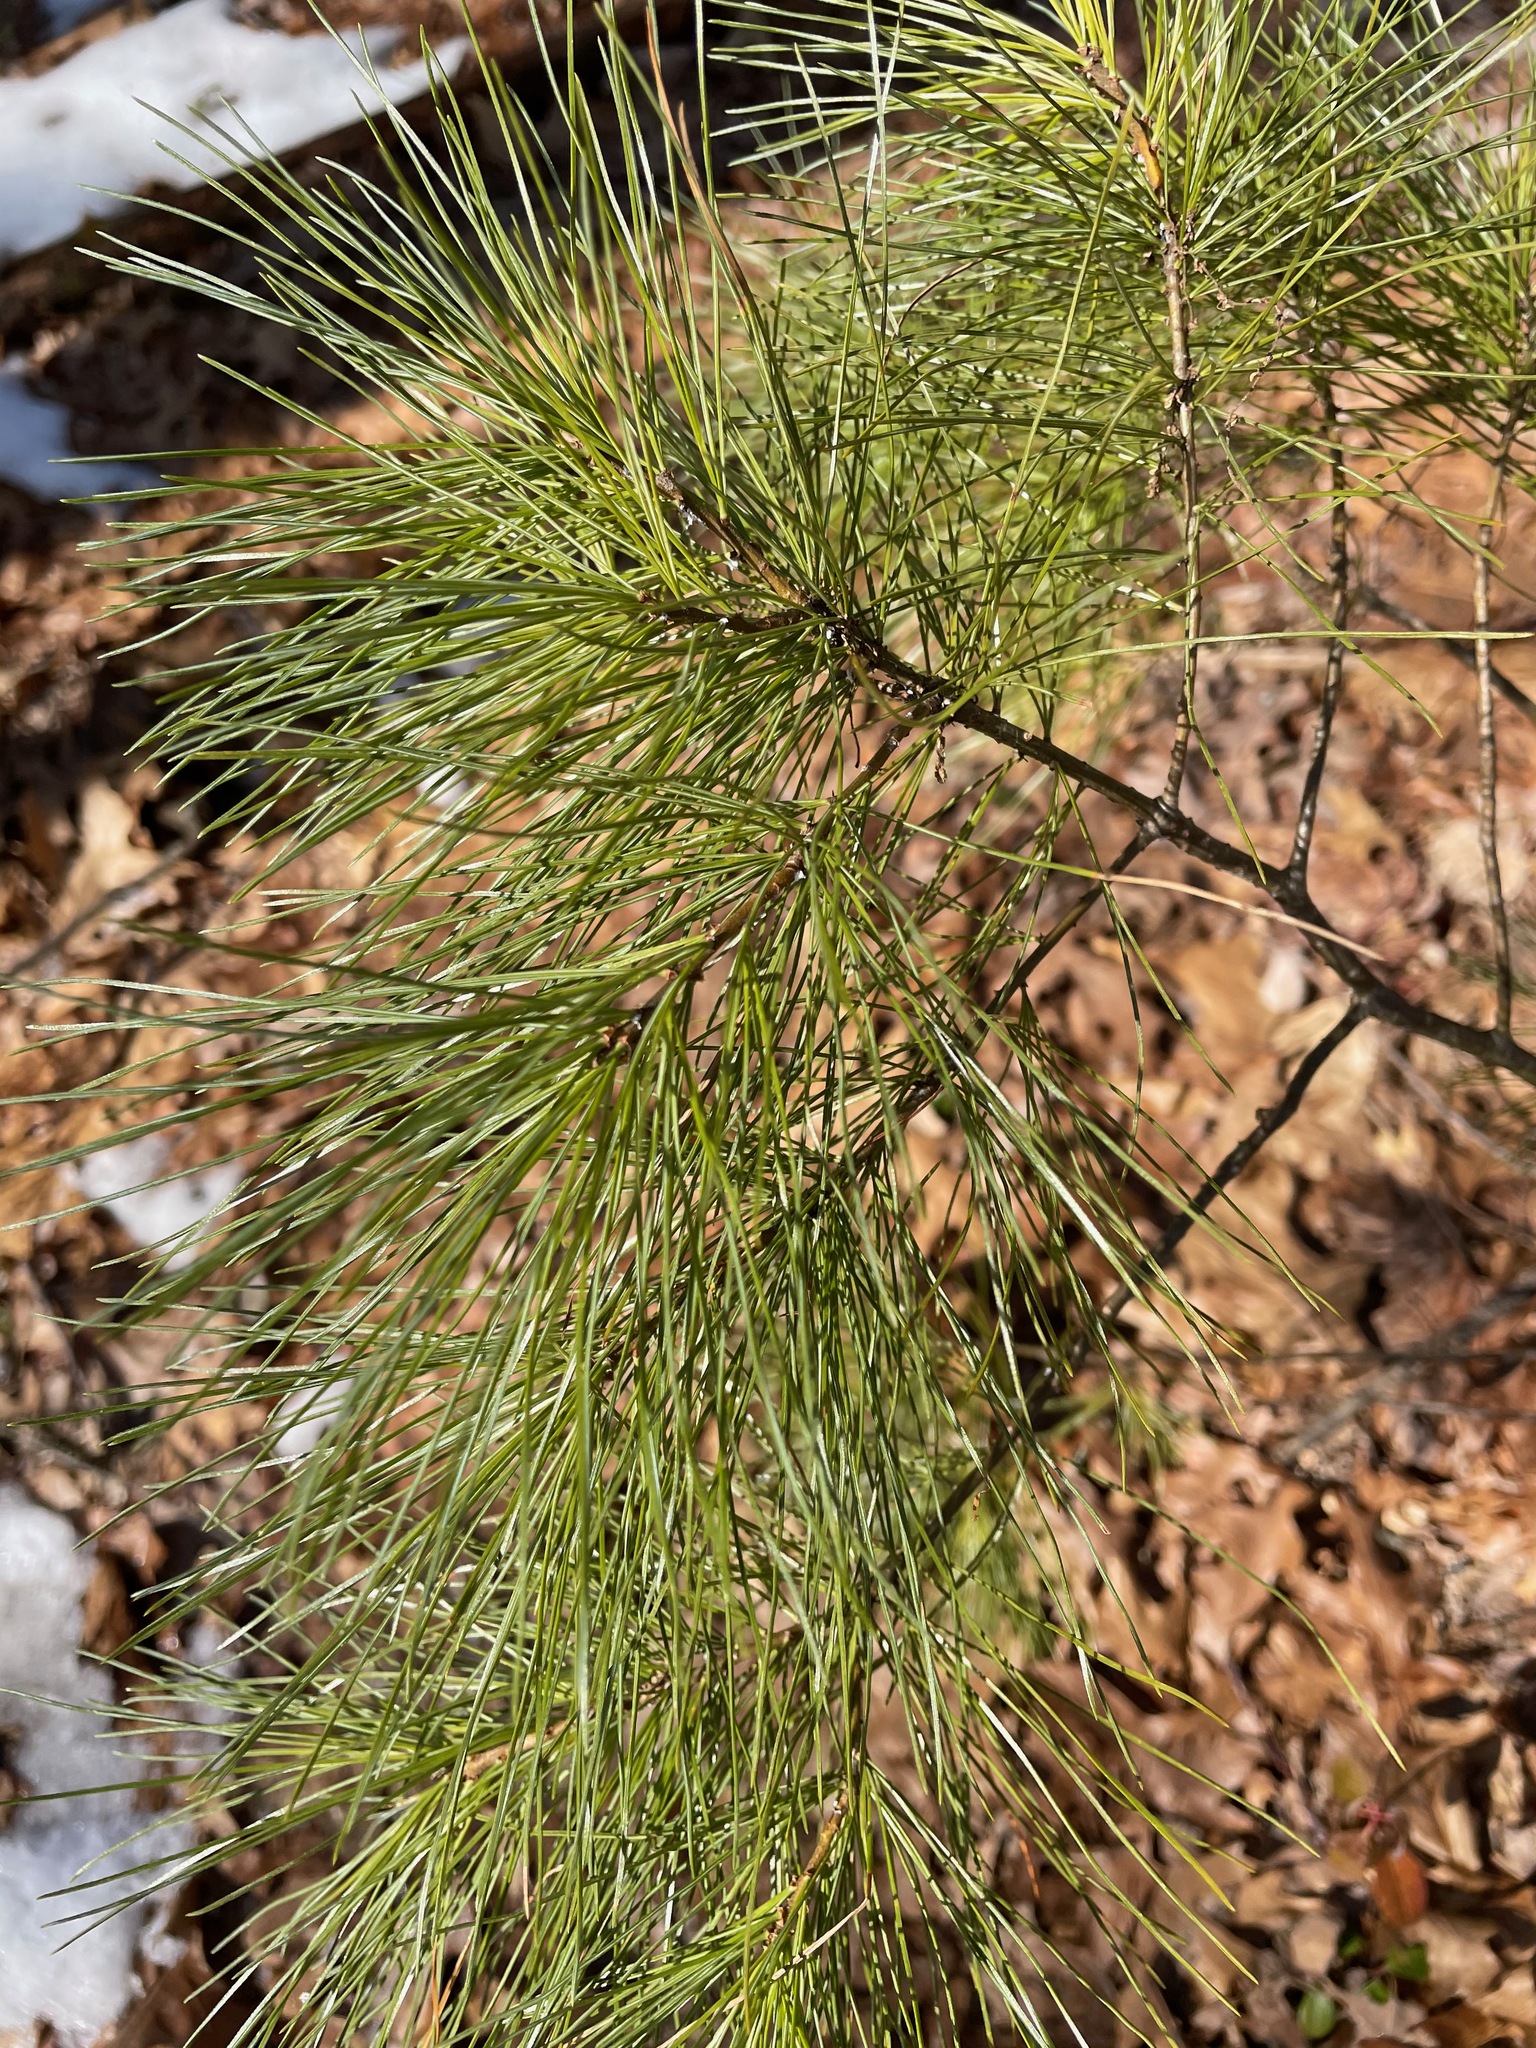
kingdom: Plantae
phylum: Tracheophyta
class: Pinopsida
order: Pinales
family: Pinaceae
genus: Pinus
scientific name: Pinus strobus
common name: Weymouth pine
